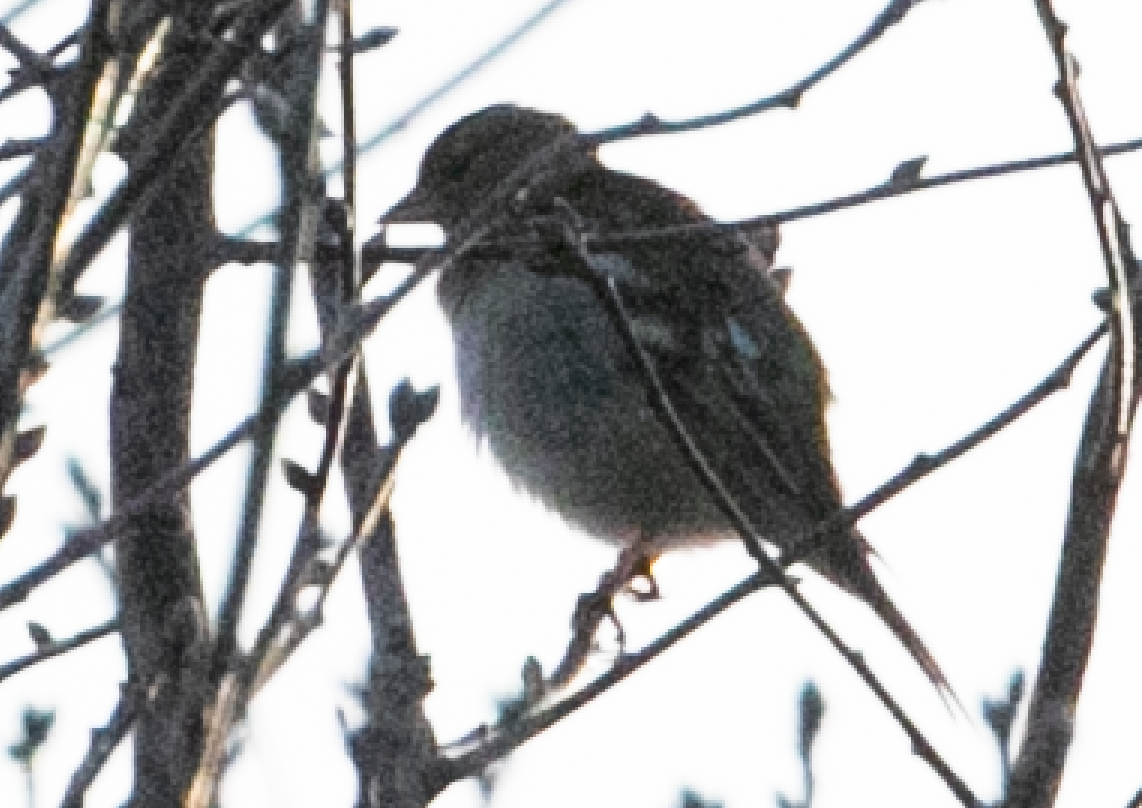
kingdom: Animalia
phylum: Chordata
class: Aves
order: Passeriformes
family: Fringillidae
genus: Fringilla
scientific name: Fringilla coelebs
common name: Common chaffinch
